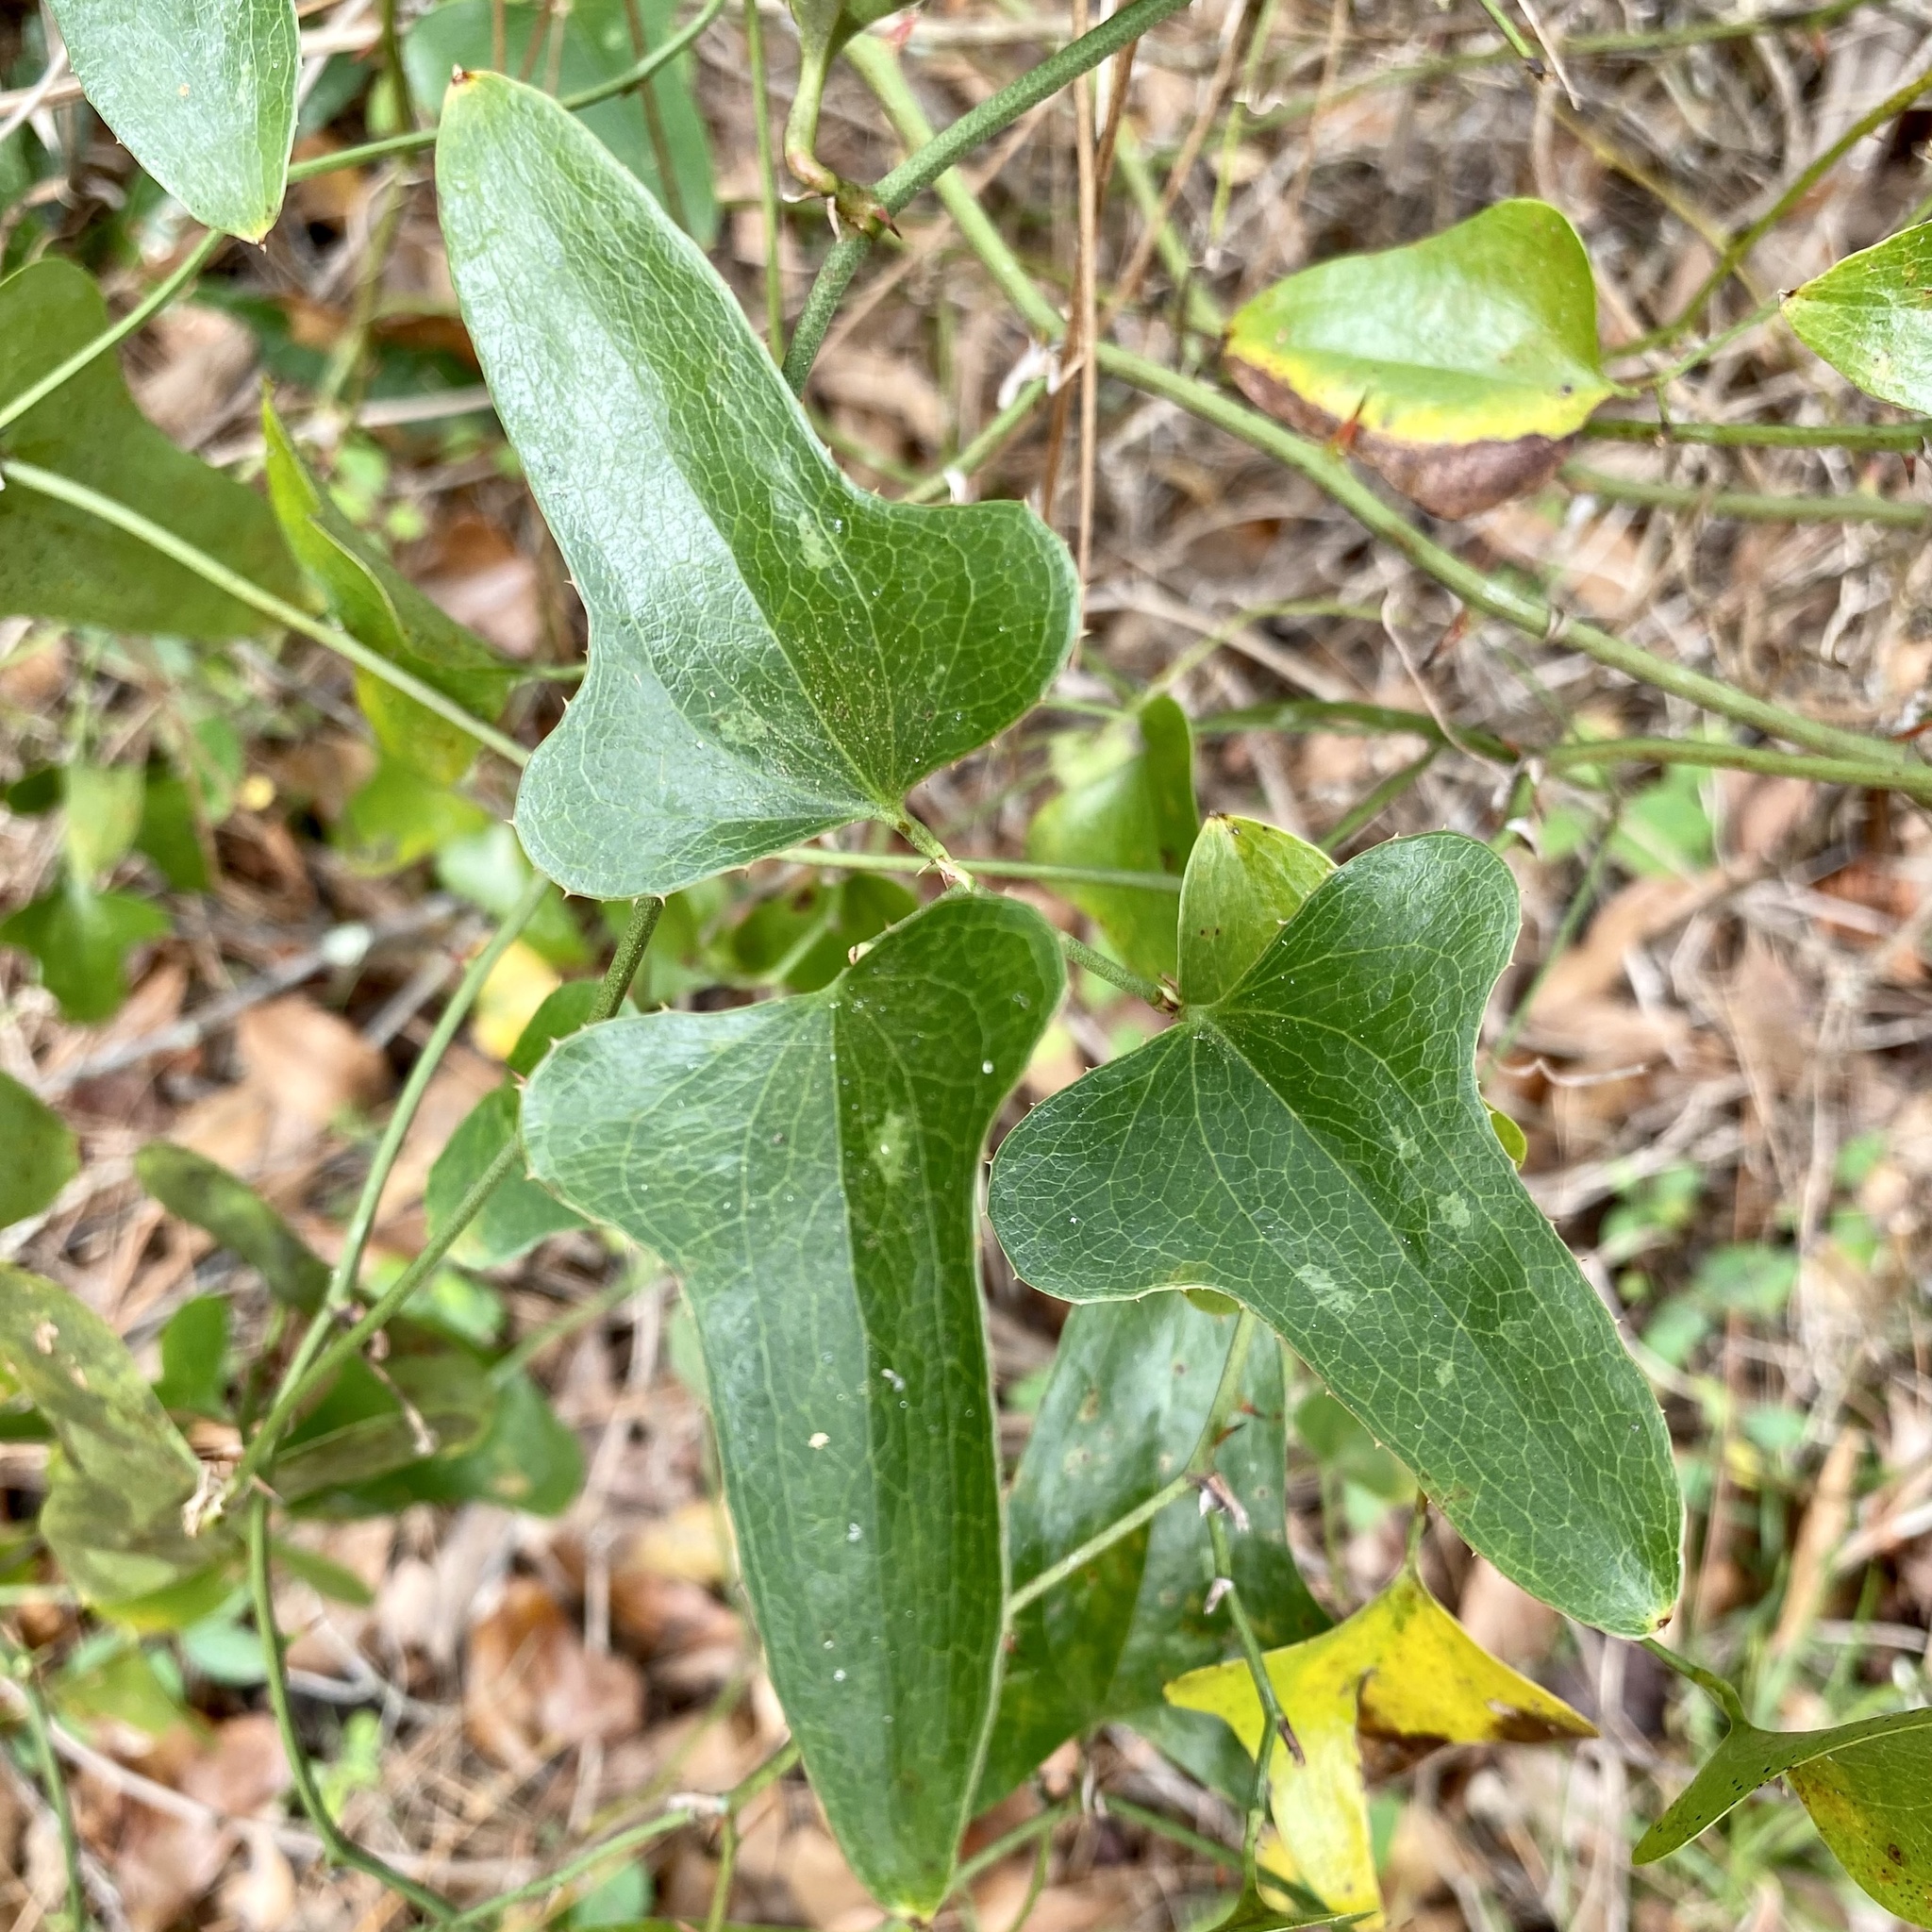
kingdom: Plantae
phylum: Tracheophyta
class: Liliopsida
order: Liliales
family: Smilacaceae
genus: Smilax
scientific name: Smilax bona-nox
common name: Catbrier
